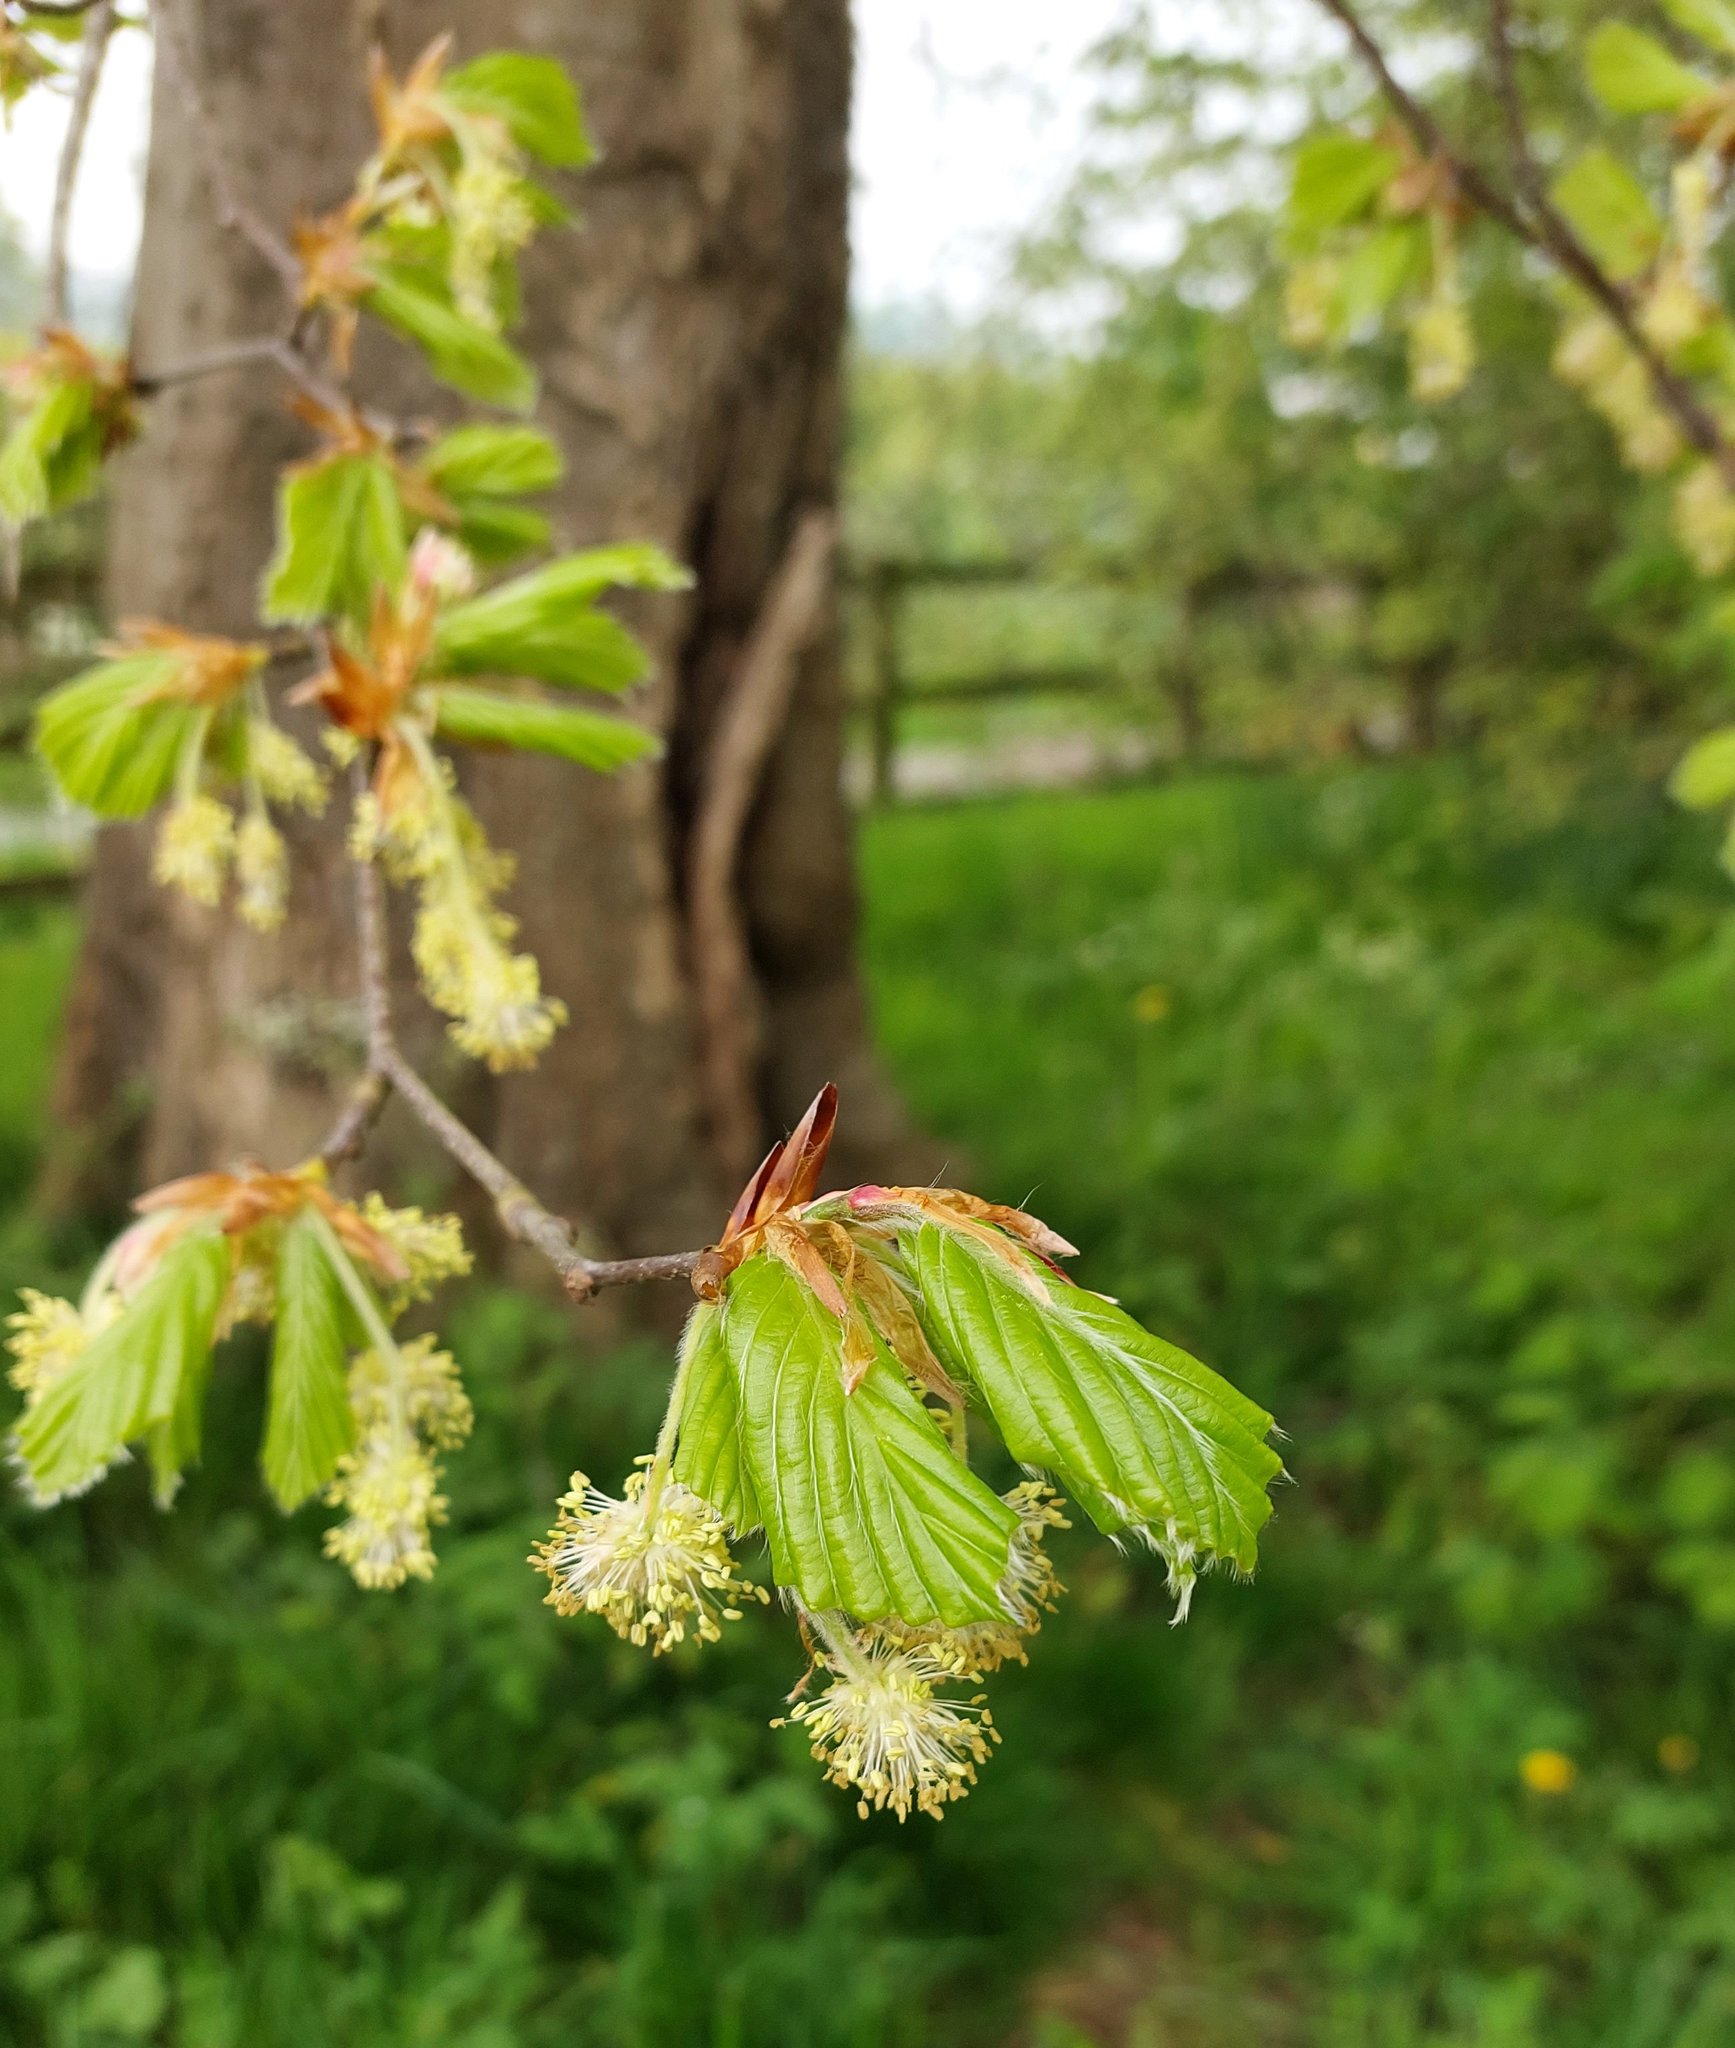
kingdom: Plantae
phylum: Tracheophyta
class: Magnoliopsida
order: Fagales
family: Fagaceae
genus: Fagus
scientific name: Fagus sylvatica
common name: Beech
